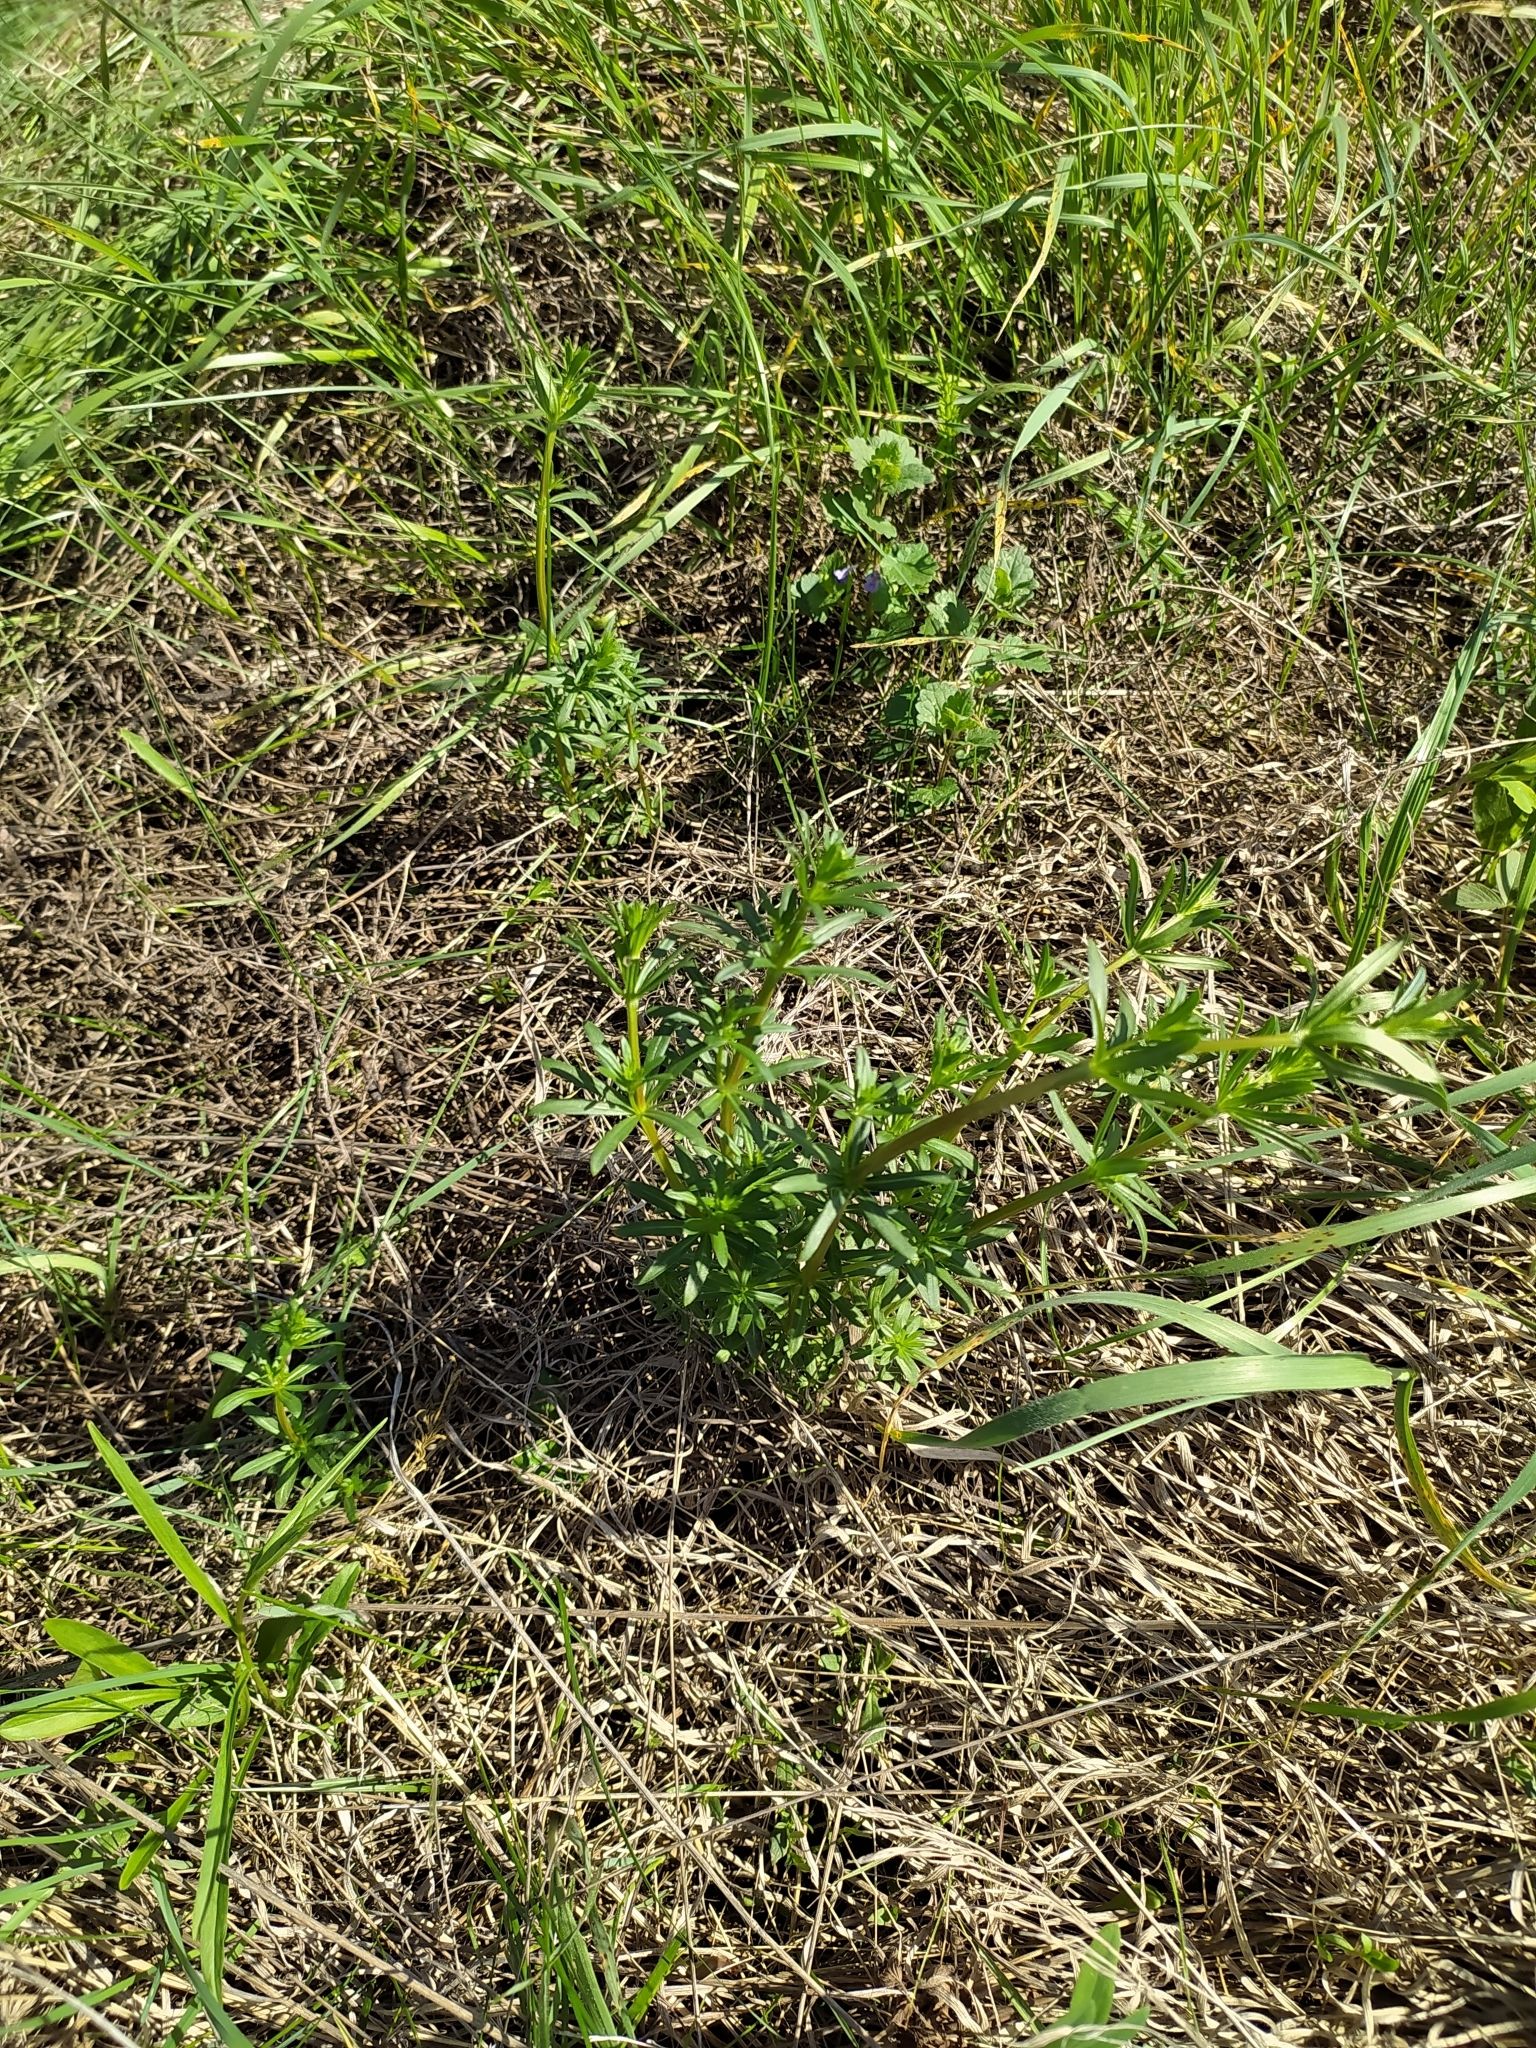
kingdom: Plantae
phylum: Tracheophyta
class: Magnoliopsida
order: Gentianales
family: Rubiaceae
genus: Galium
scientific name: Galium mollugo
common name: Hedge bedstraw
